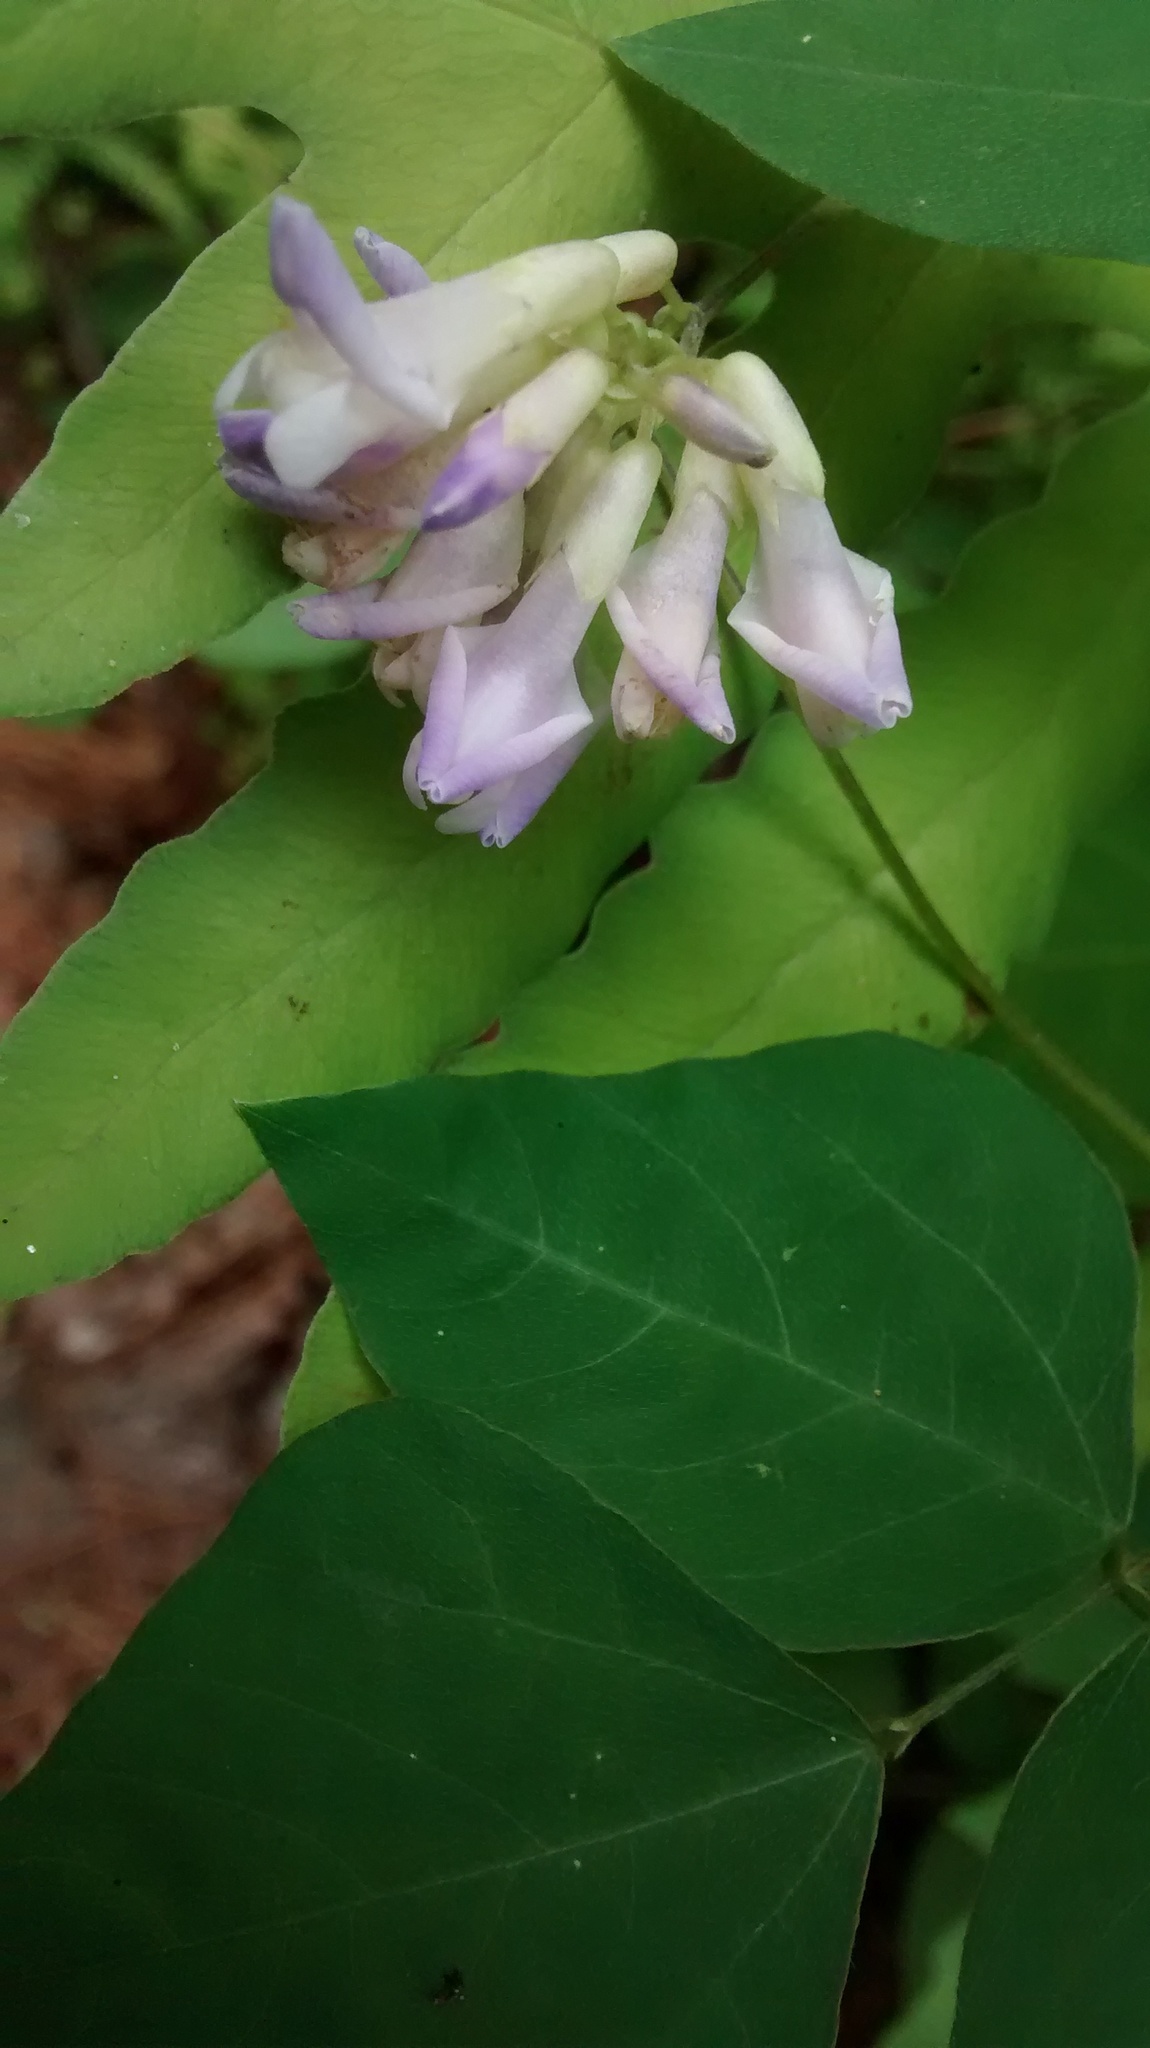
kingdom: Plantae
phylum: Tracheophyta
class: Magnoliopsida
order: Fabales
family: Fabaceae
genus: Amphicarpaea
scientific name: Amphicarpaea bracteata
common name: American hog peanut
